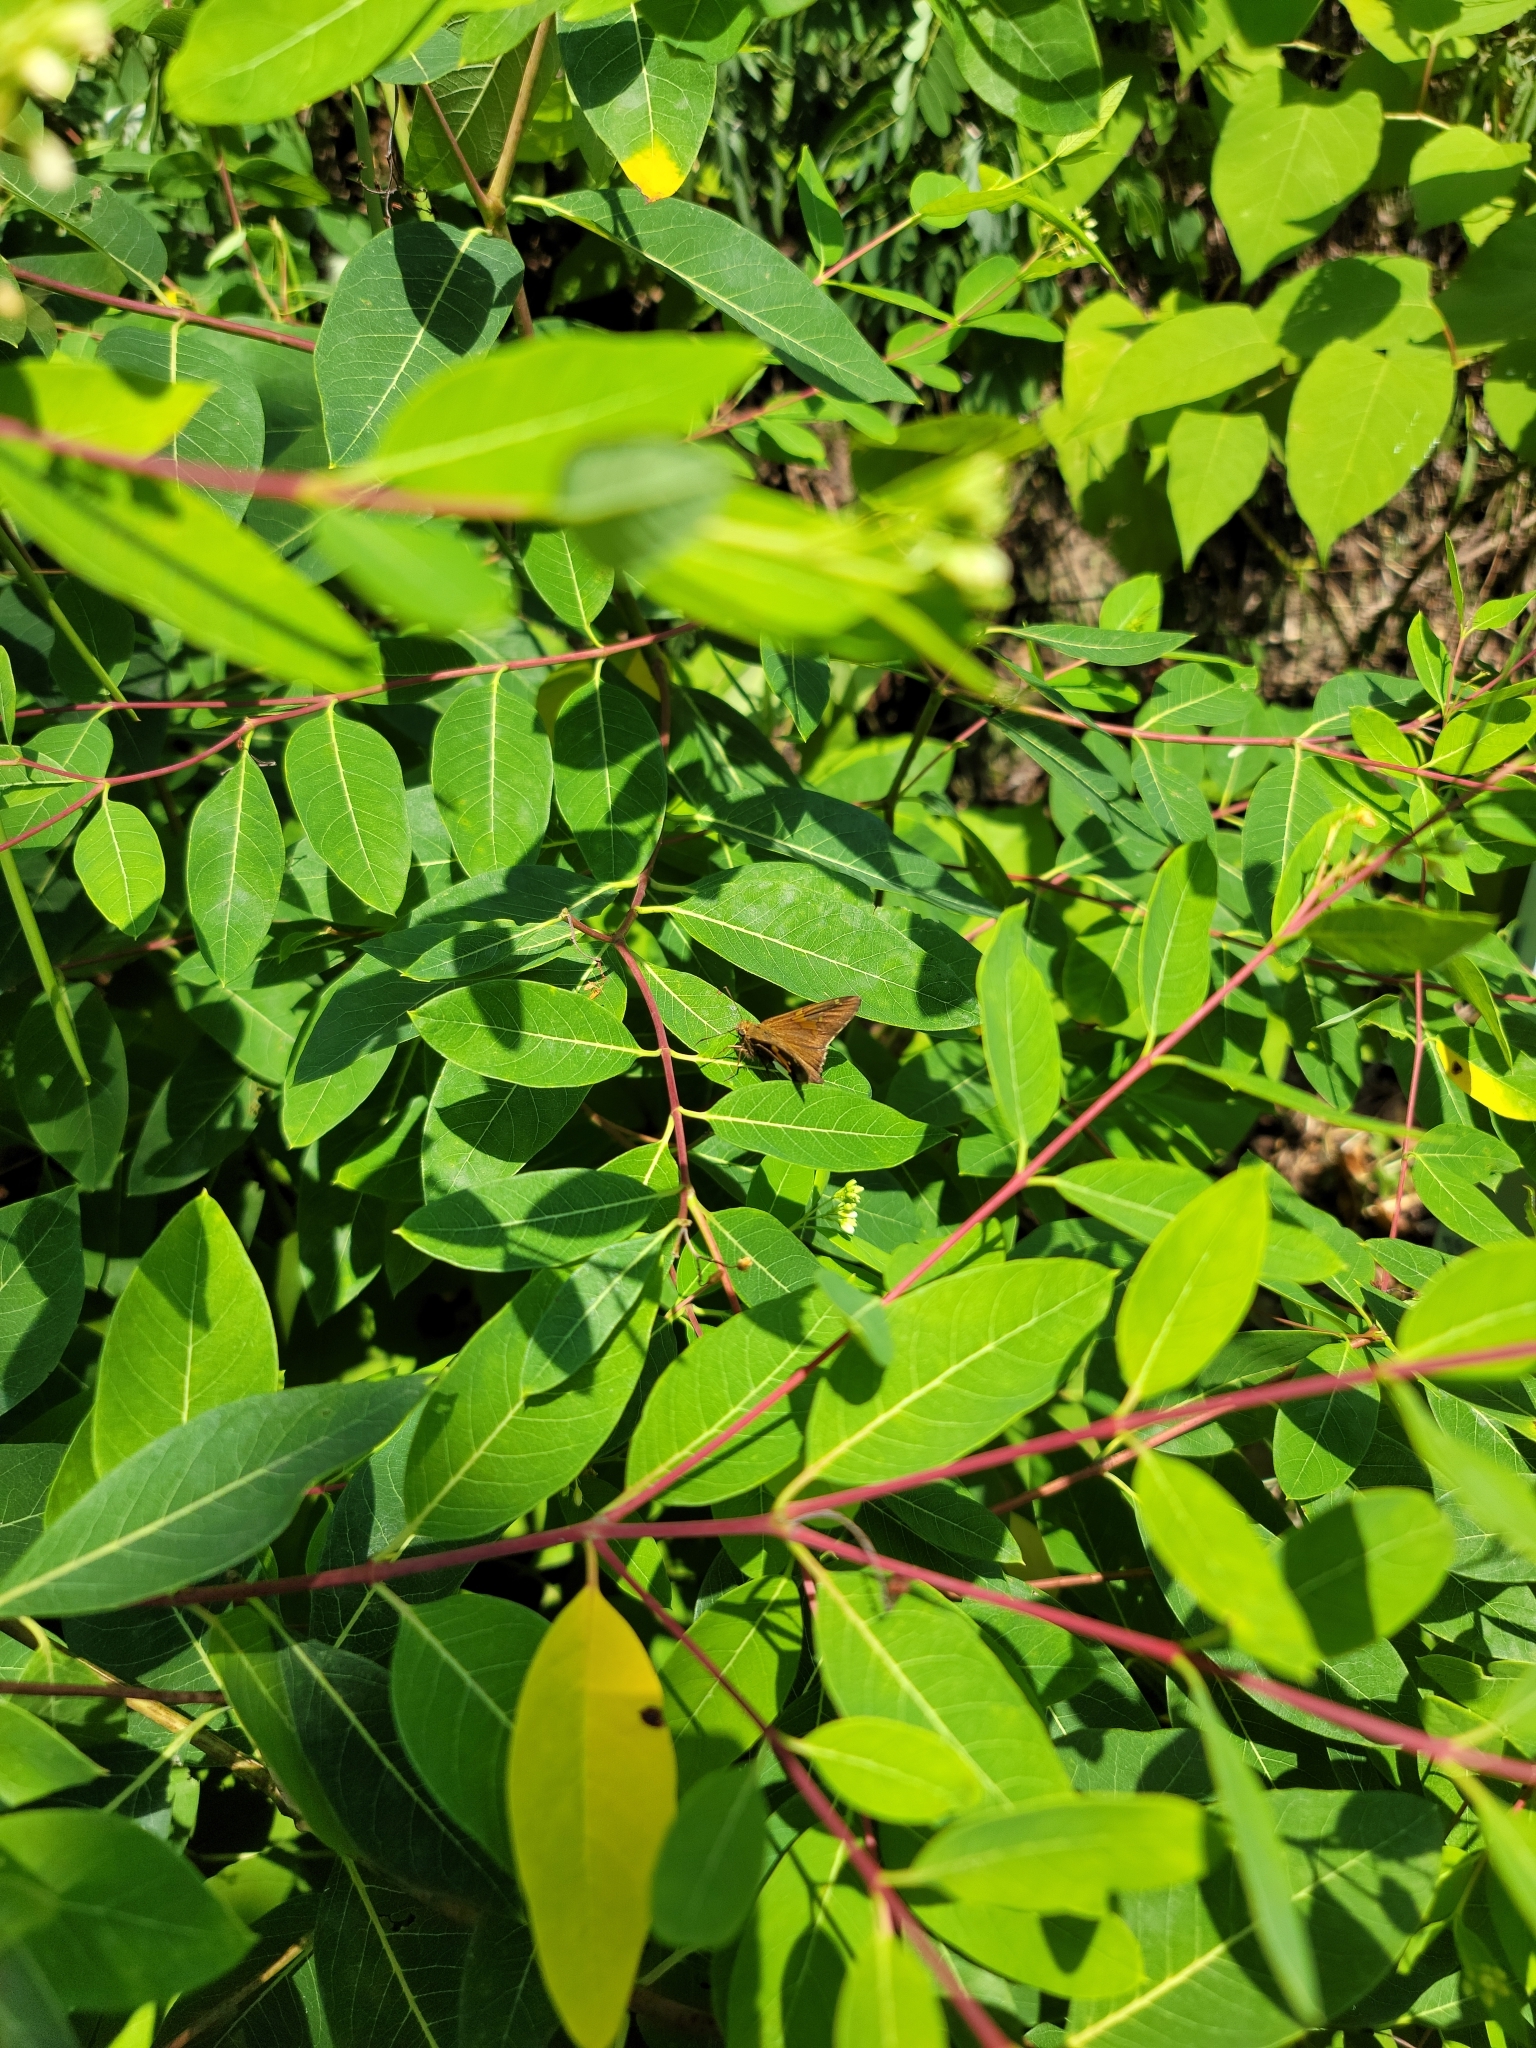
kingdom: Animalia
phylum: Arthropoda
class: Insecta
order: Lepidoptera
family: Hesperiidae
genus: Epargyreus
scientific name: Epargyreus clarus
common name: Silver-spotted skipper
